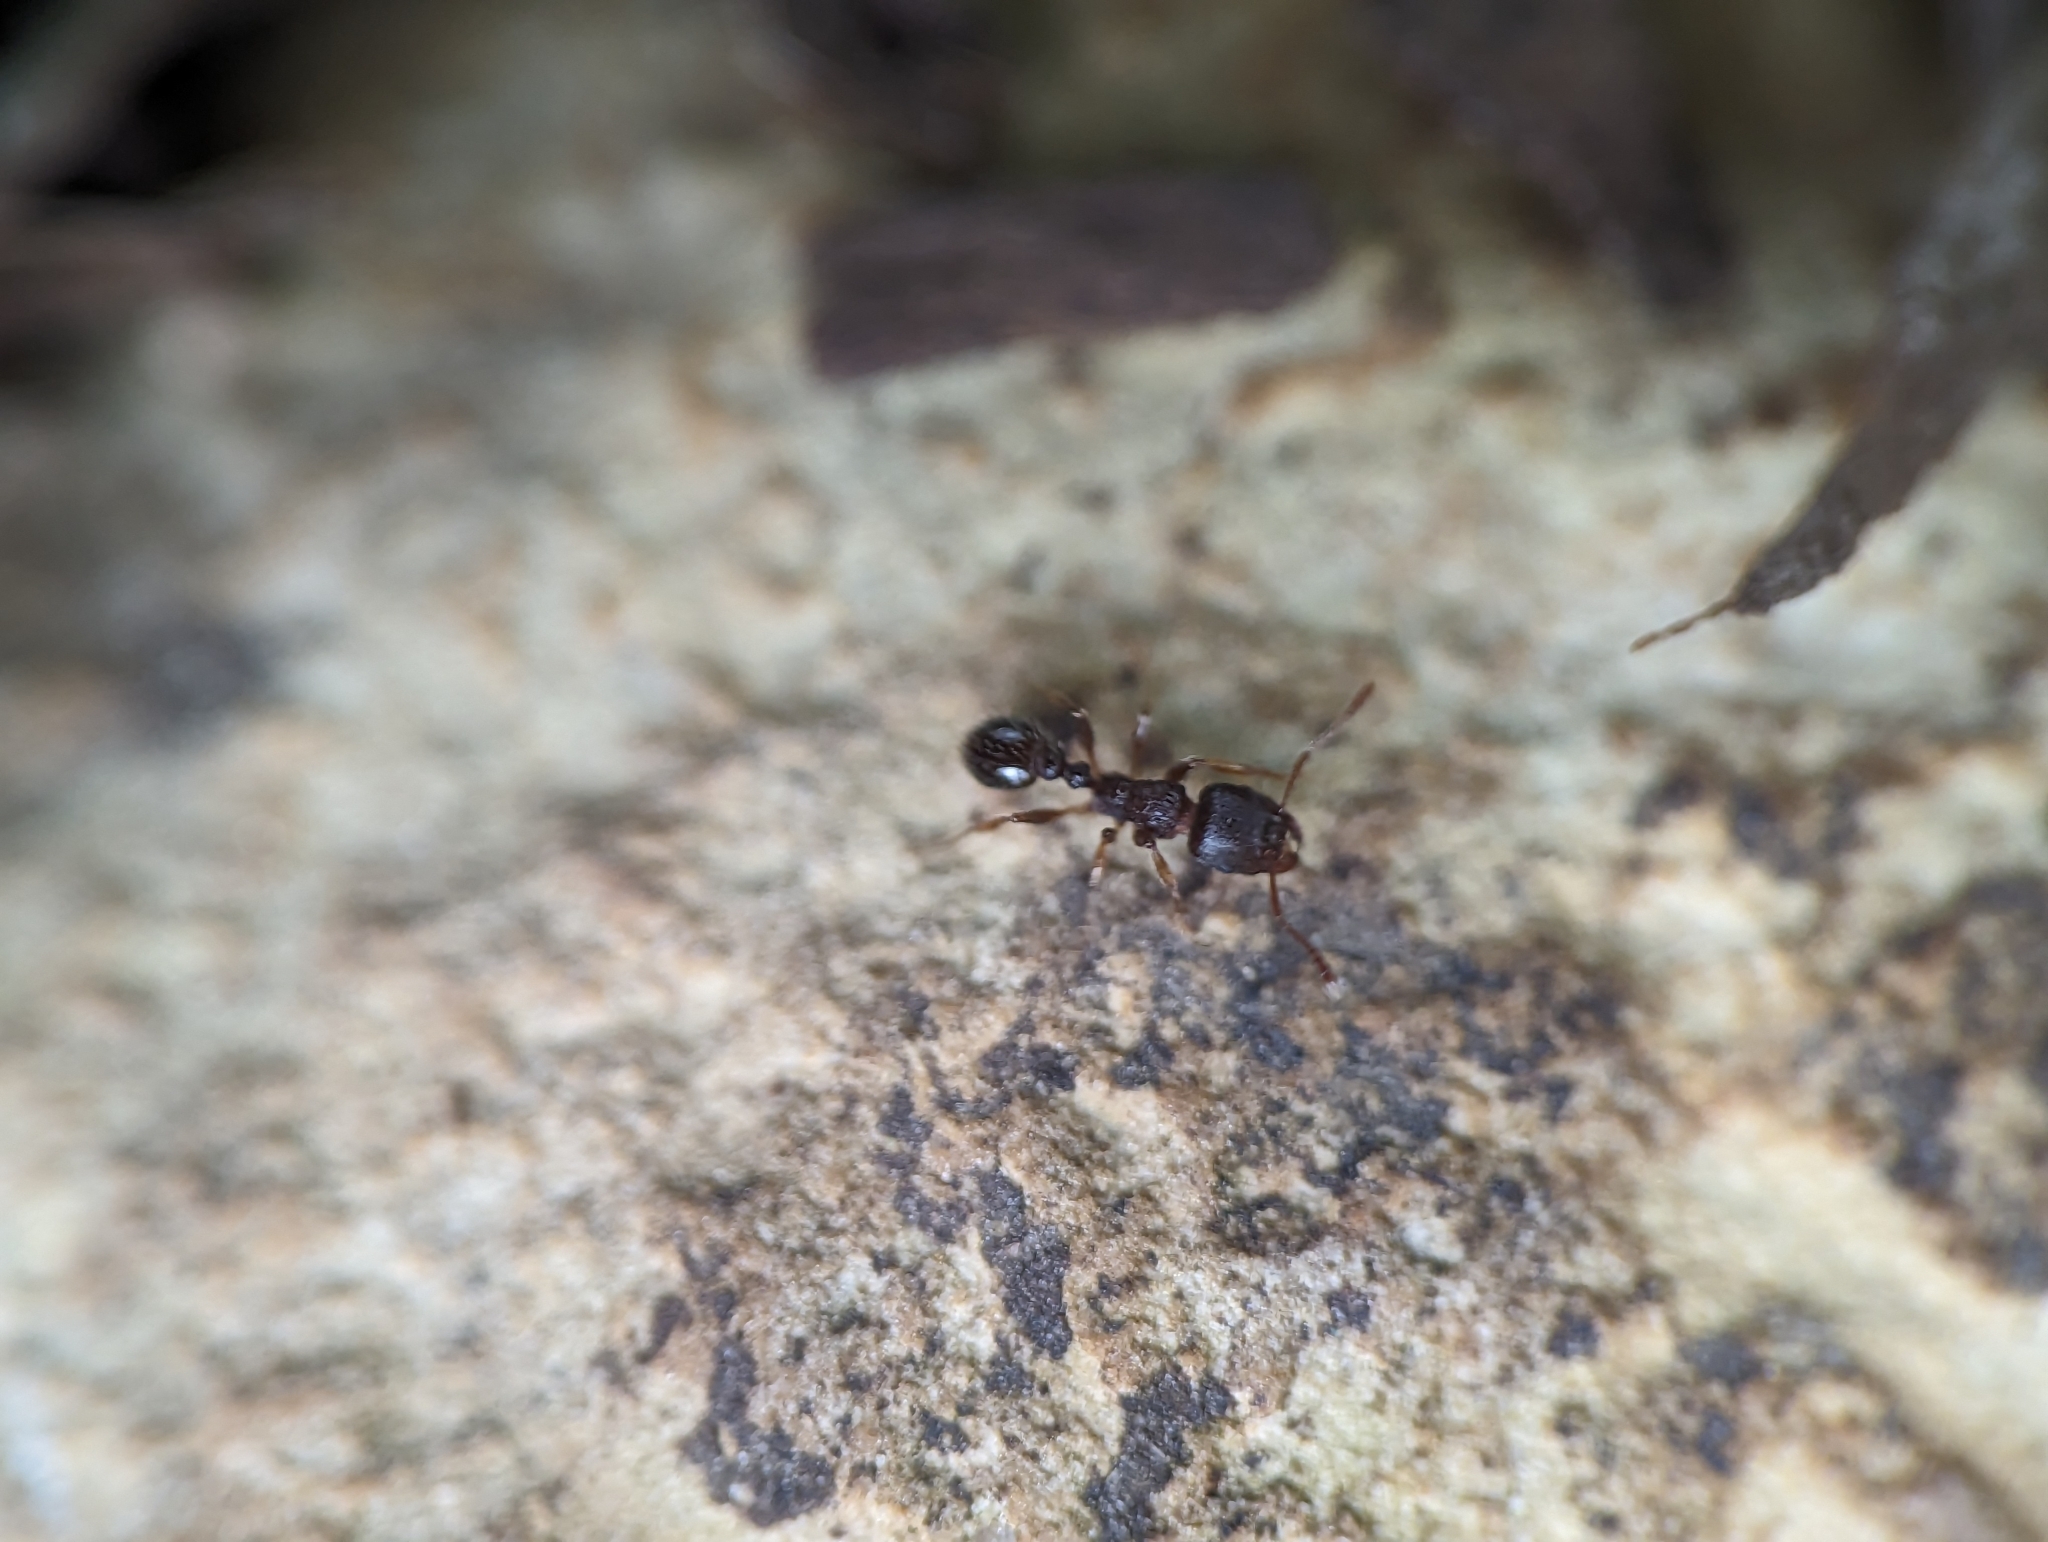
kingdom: Animalia
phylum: Arthropoda
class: Insecta
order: Hymenoptera
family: Formicidae
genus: Tetramorium
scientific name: Tetramorium immigrans
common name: Pavement ant
